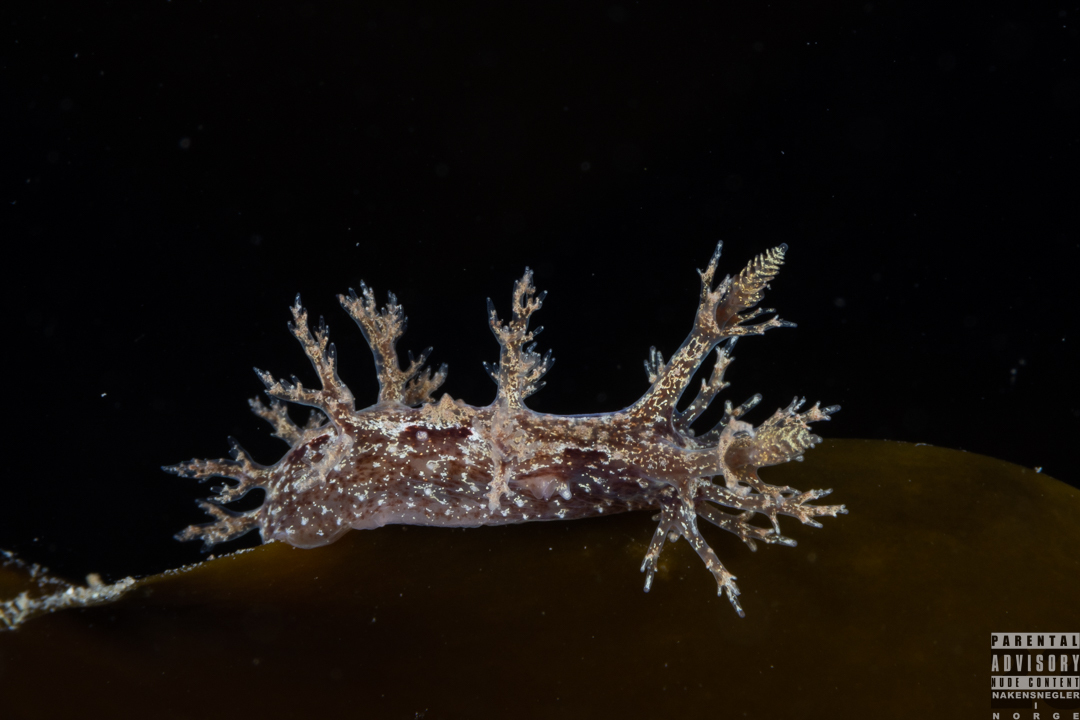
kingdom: Animalia
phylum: Mollusca
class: Gastropoda
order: Nudibranchia
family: Dendronotidae
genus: Dendronotus
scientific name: Dendronotus frondosus
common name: Bushy-backed nudibranch
